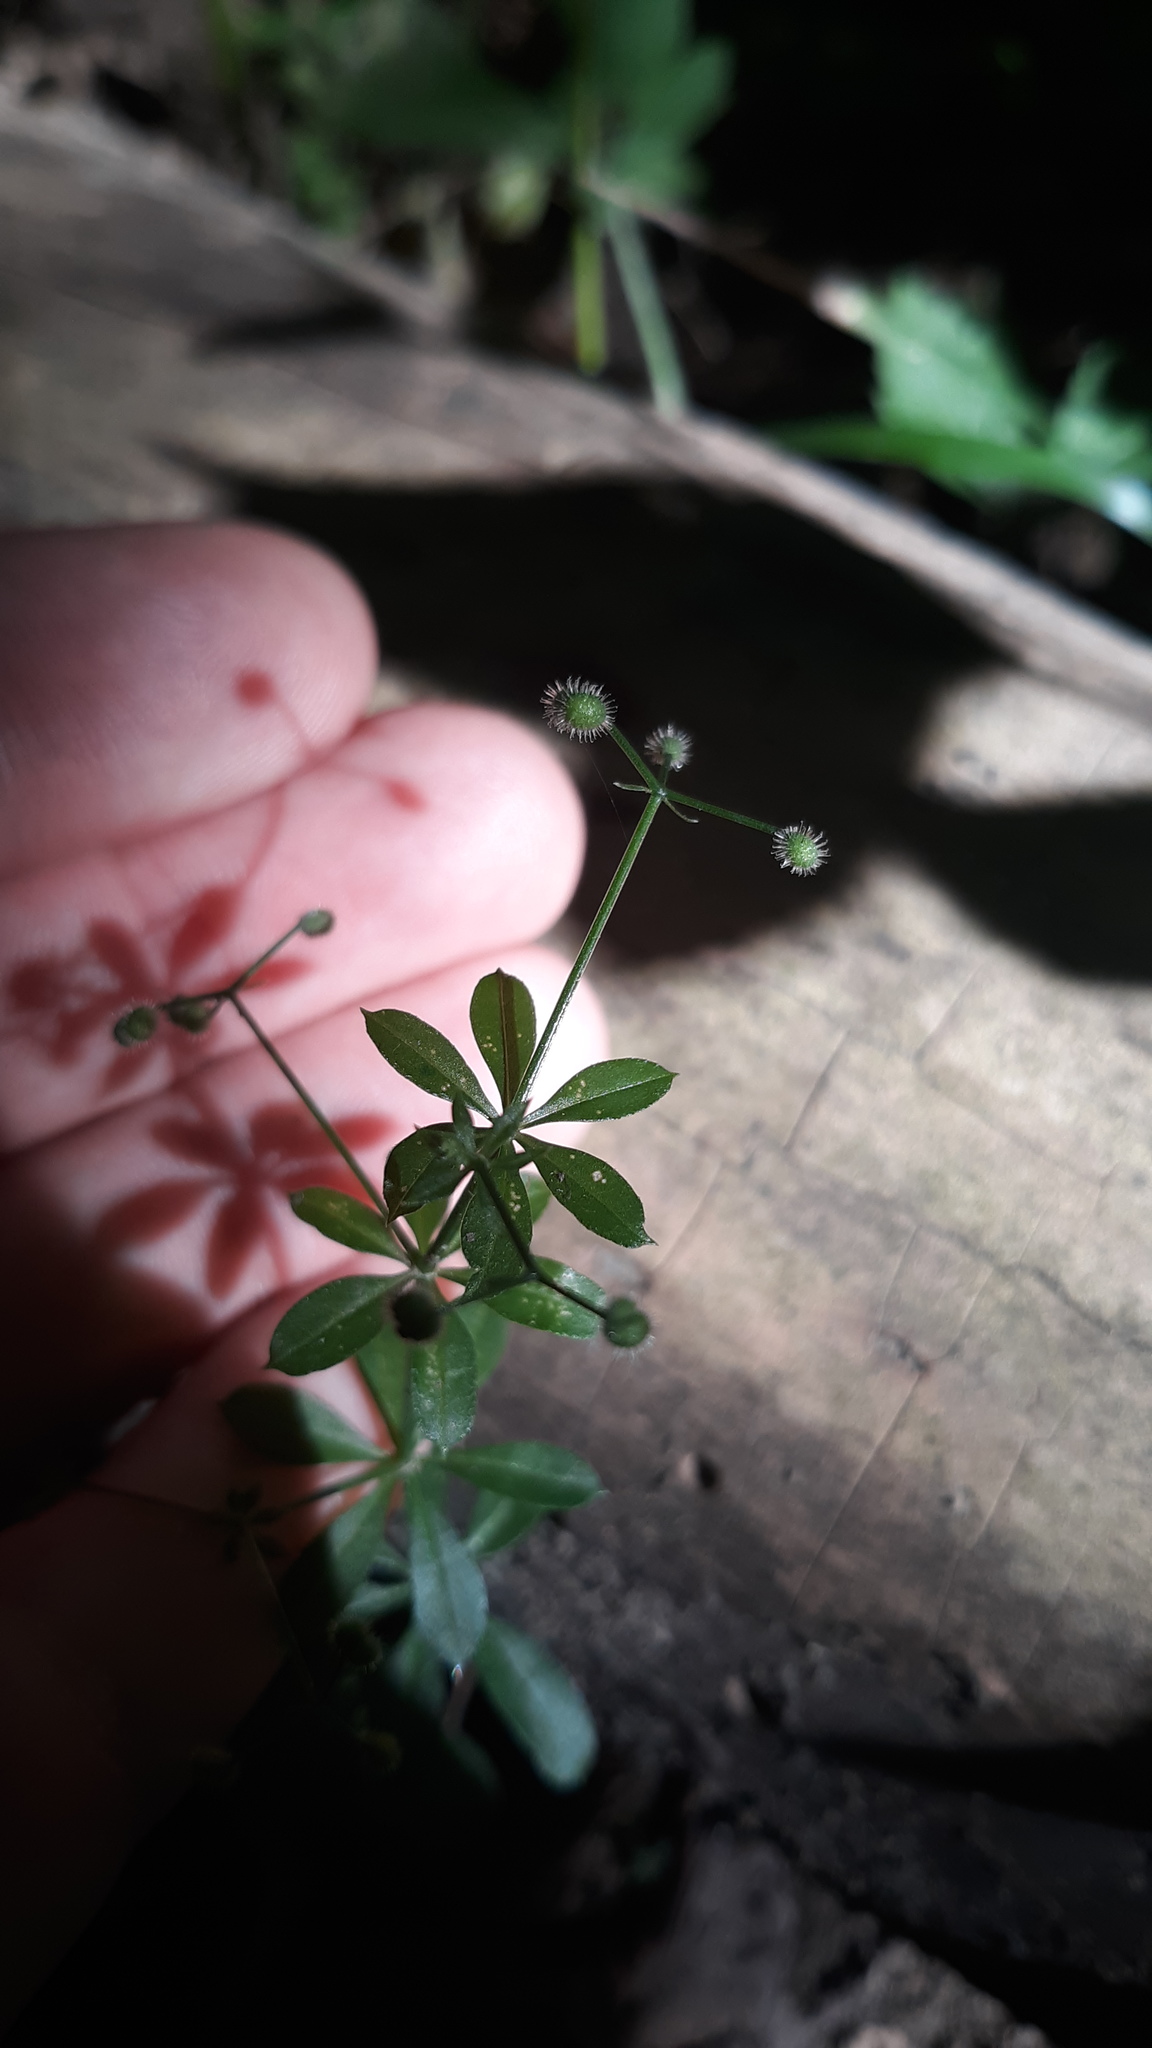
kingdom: Plantae
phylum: Tracheophyta
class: Magnoliopsida
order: Gentianales
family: Rubiaceae
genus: Galium
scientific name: Galium triflorum
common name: Fragrant bedstraw
